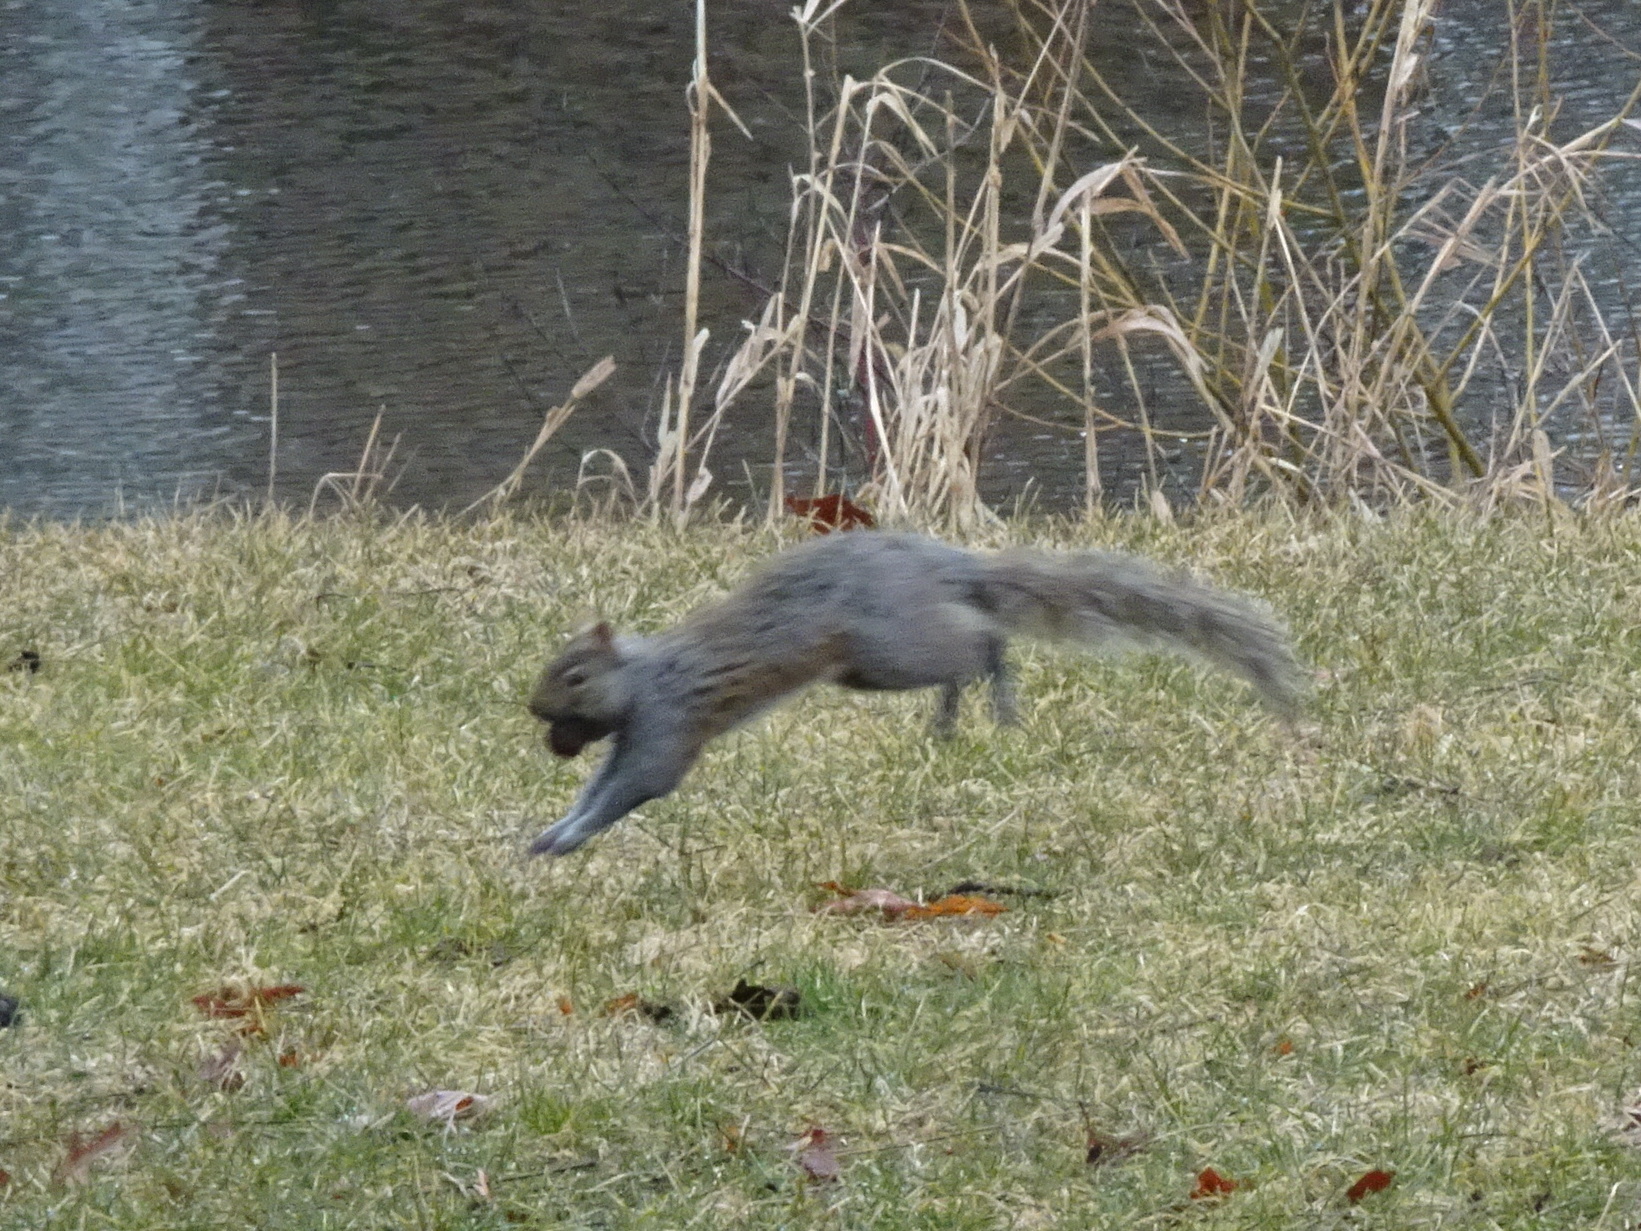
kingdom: Animalia
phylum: Chordata
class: Mammalia
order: Rodentia
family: Sciuridae
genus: Sciurus
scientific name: Sciurus carolinensis
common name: Eastern gray squirrel
